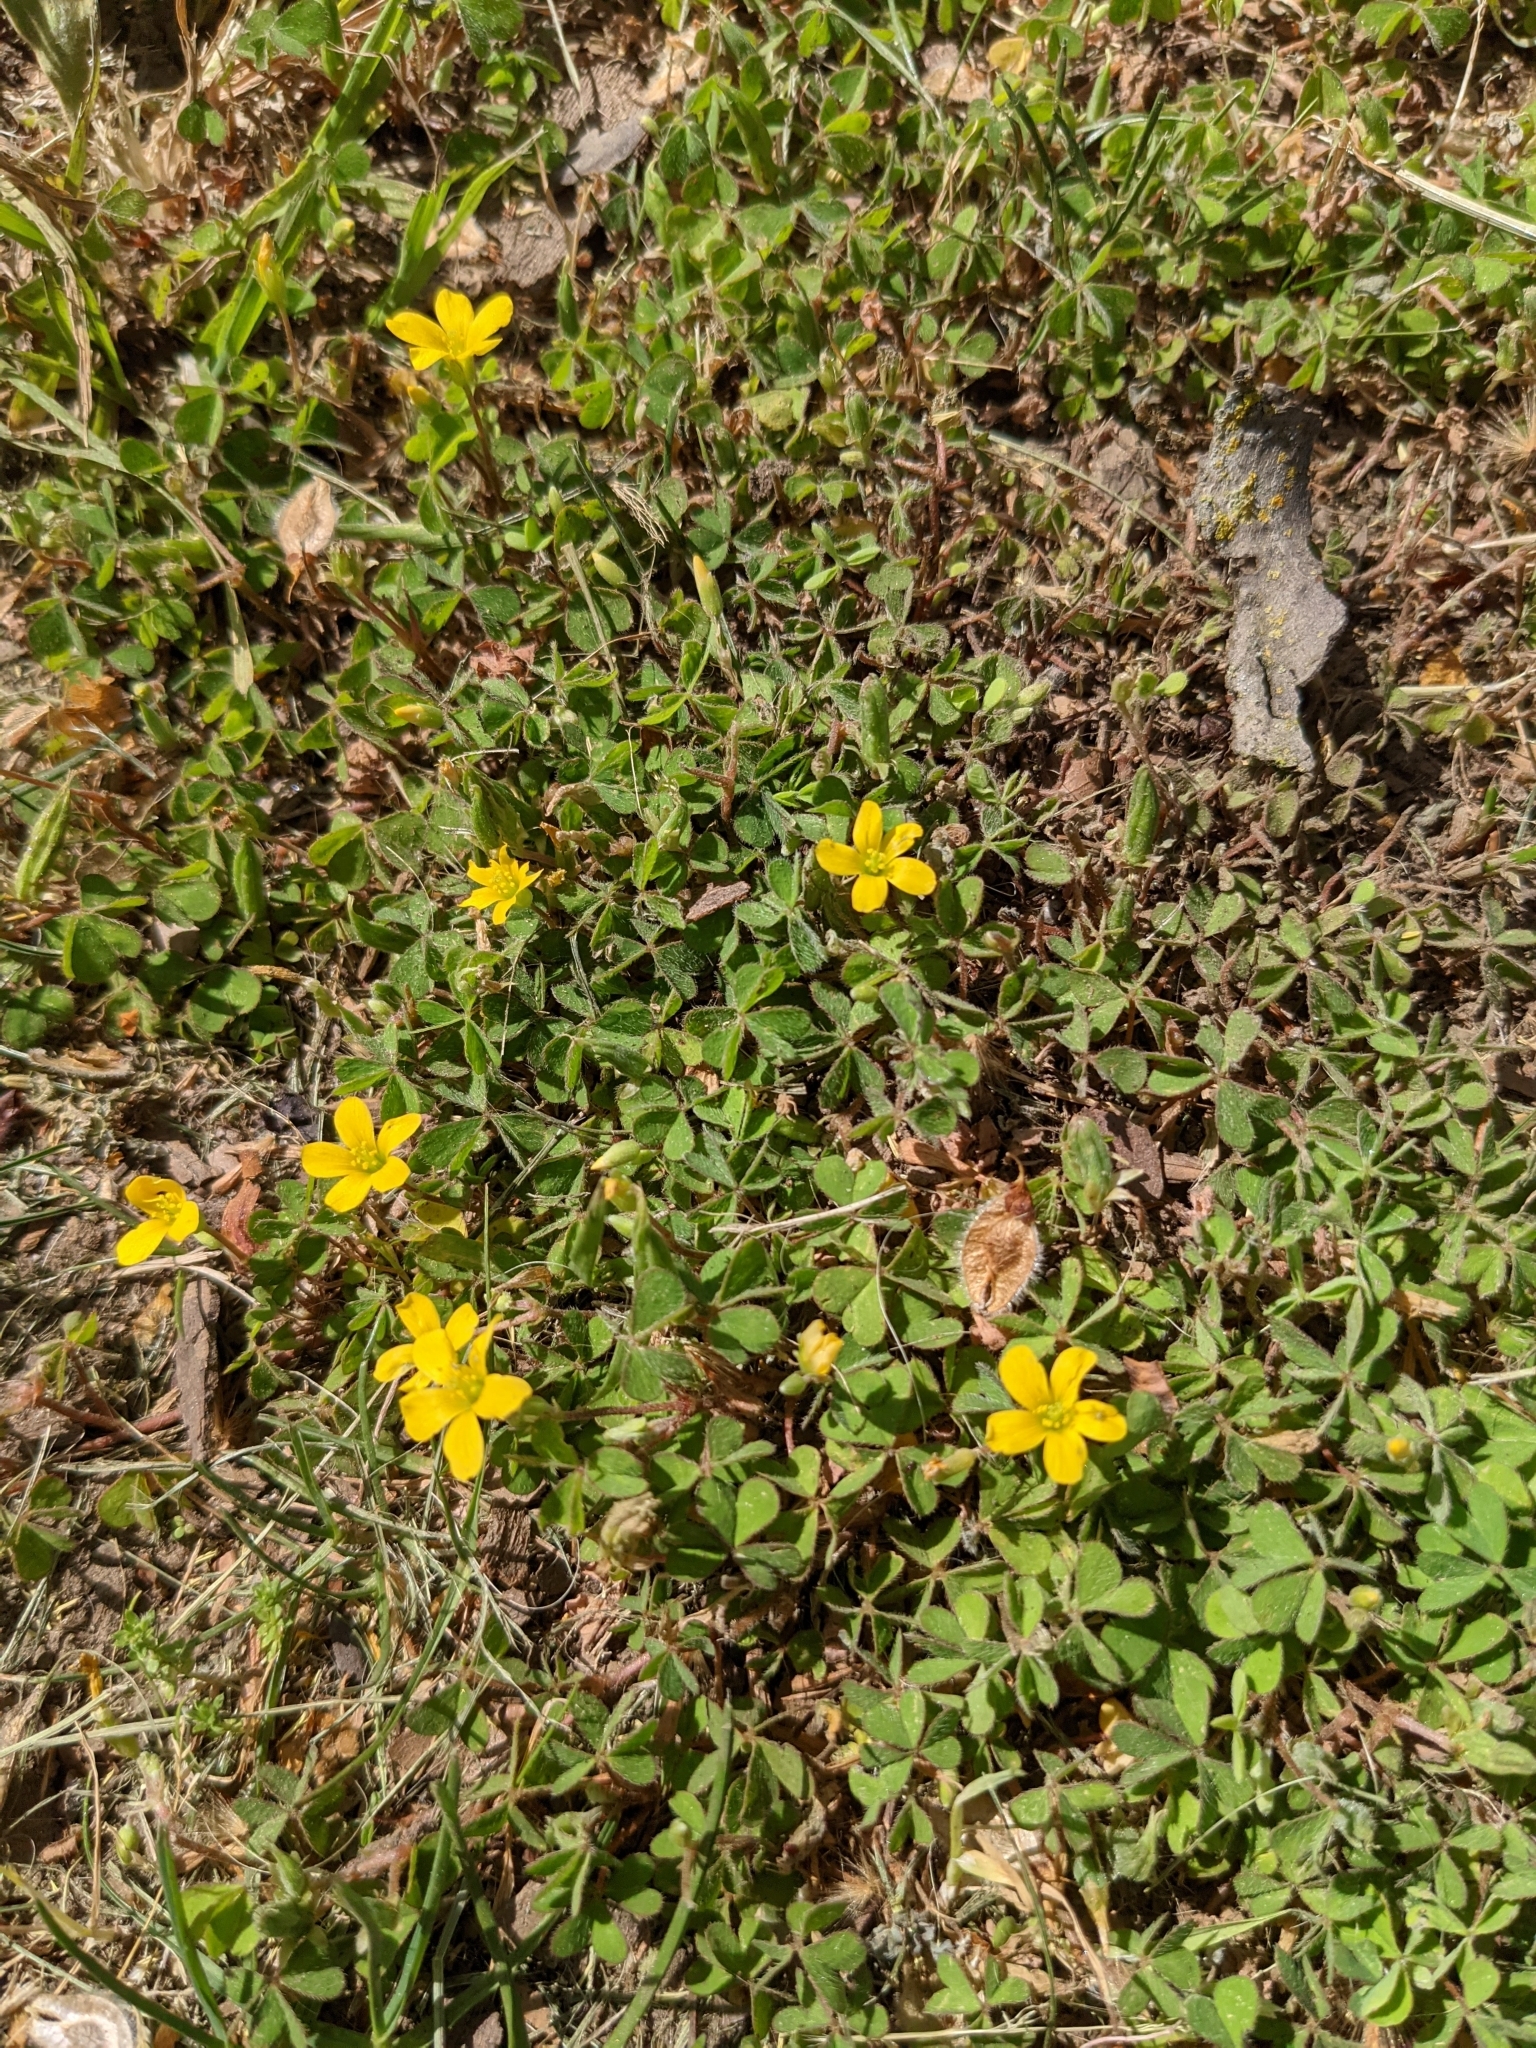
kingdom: Plantae
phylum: Tracheophyta
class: Magnoliopsida
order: Oxalidales
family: Oxalidaceae
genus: Oxalis
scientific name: Oxalis corniculata
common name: Procumbent yellow-sorrel
